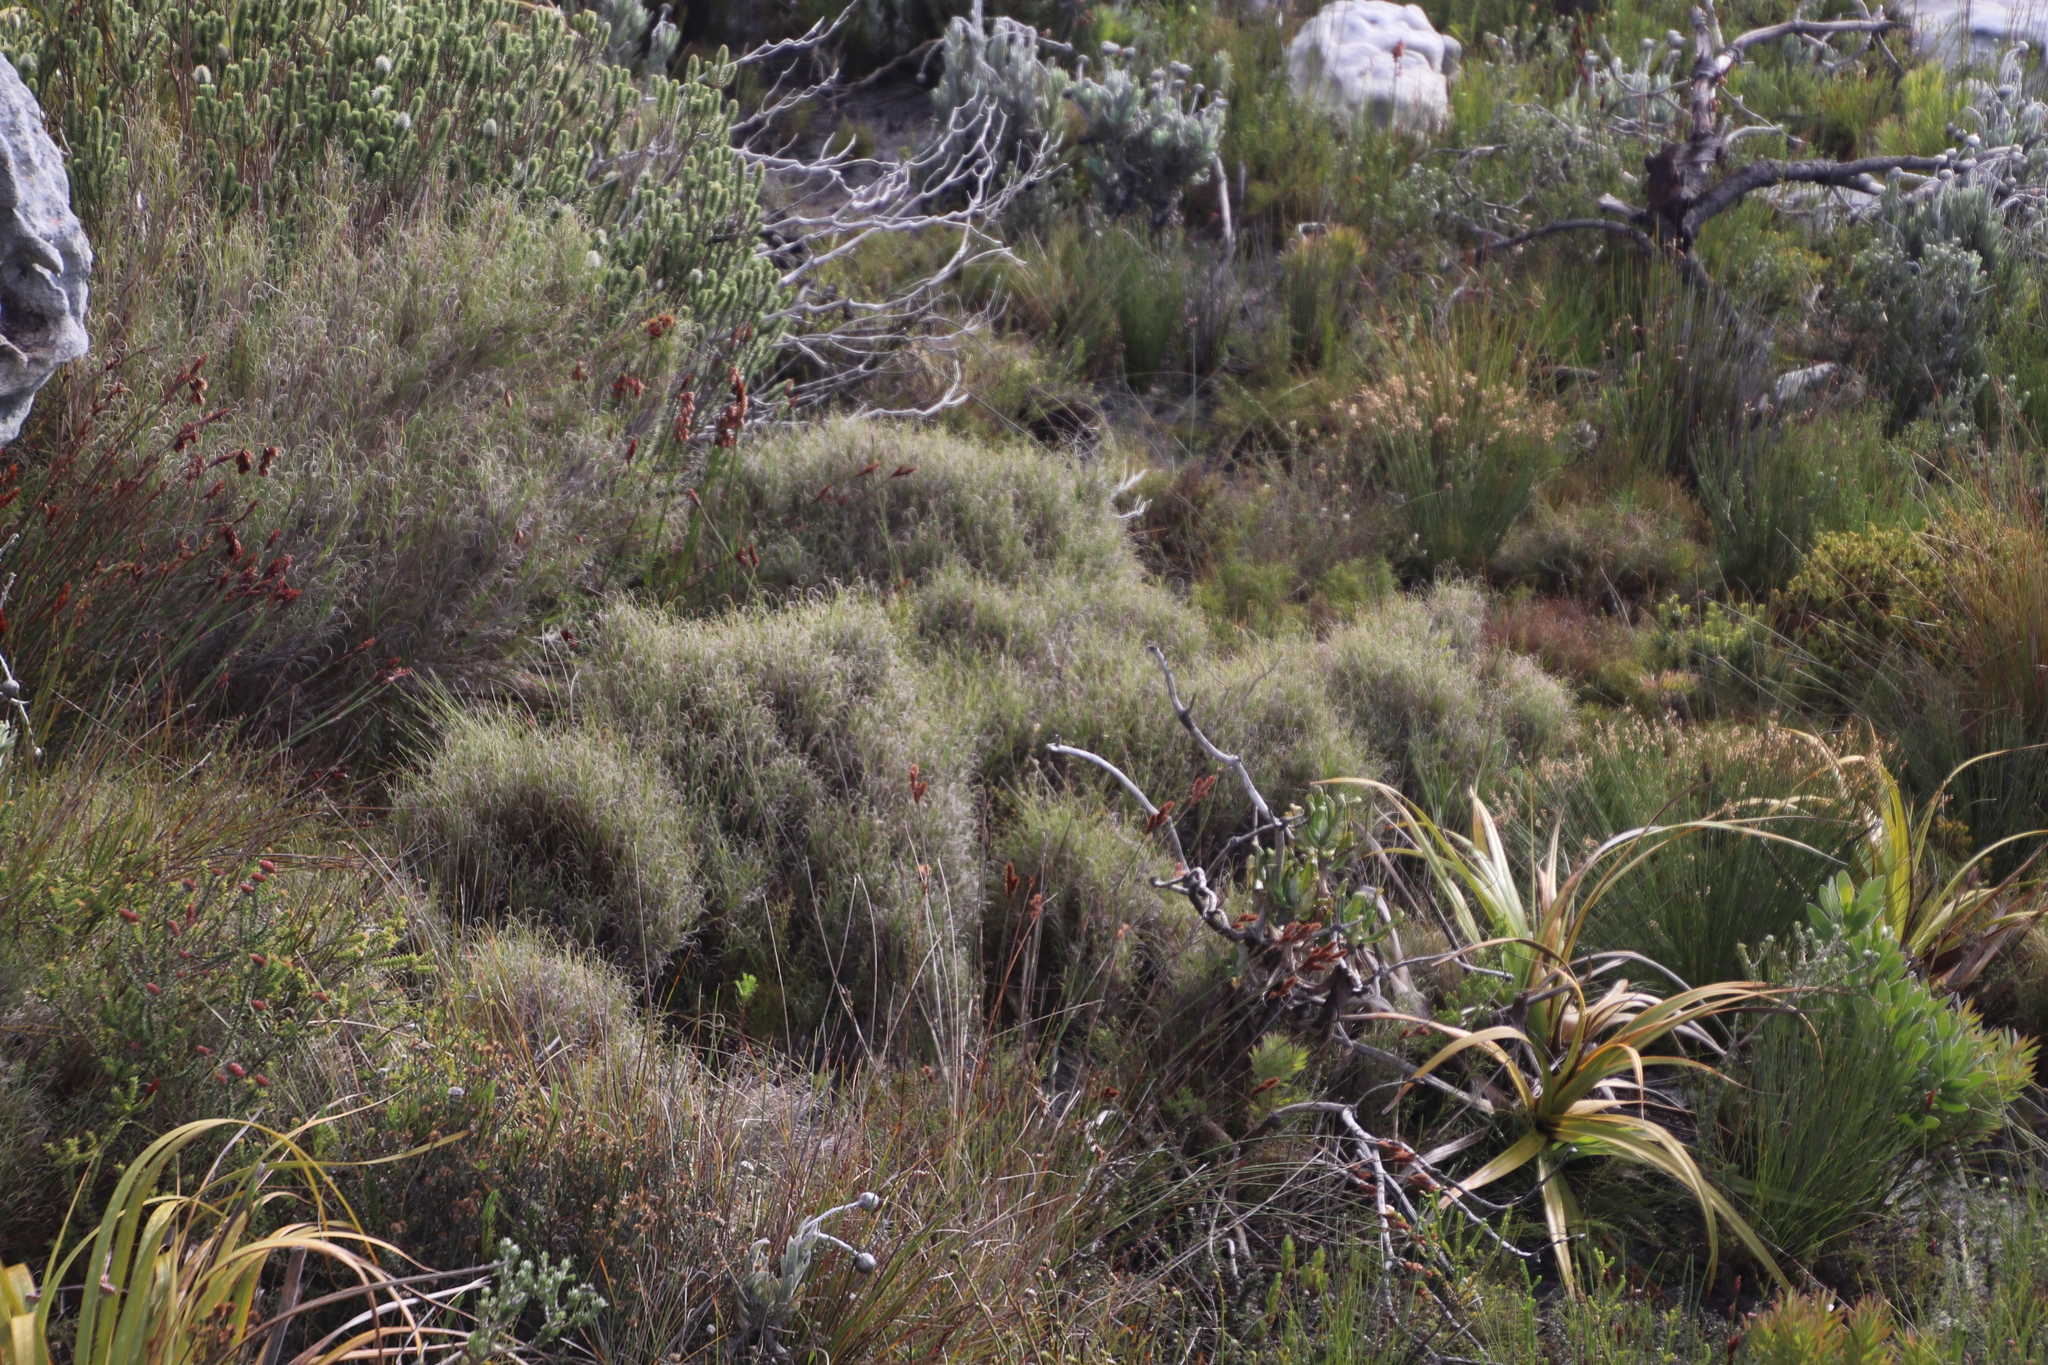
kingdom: Plantae
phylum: Tracheophyta
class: Liliopsida
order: Poales
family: Poaceae
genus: Pseudopentameris
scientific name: Pseudopentameris macrantha
